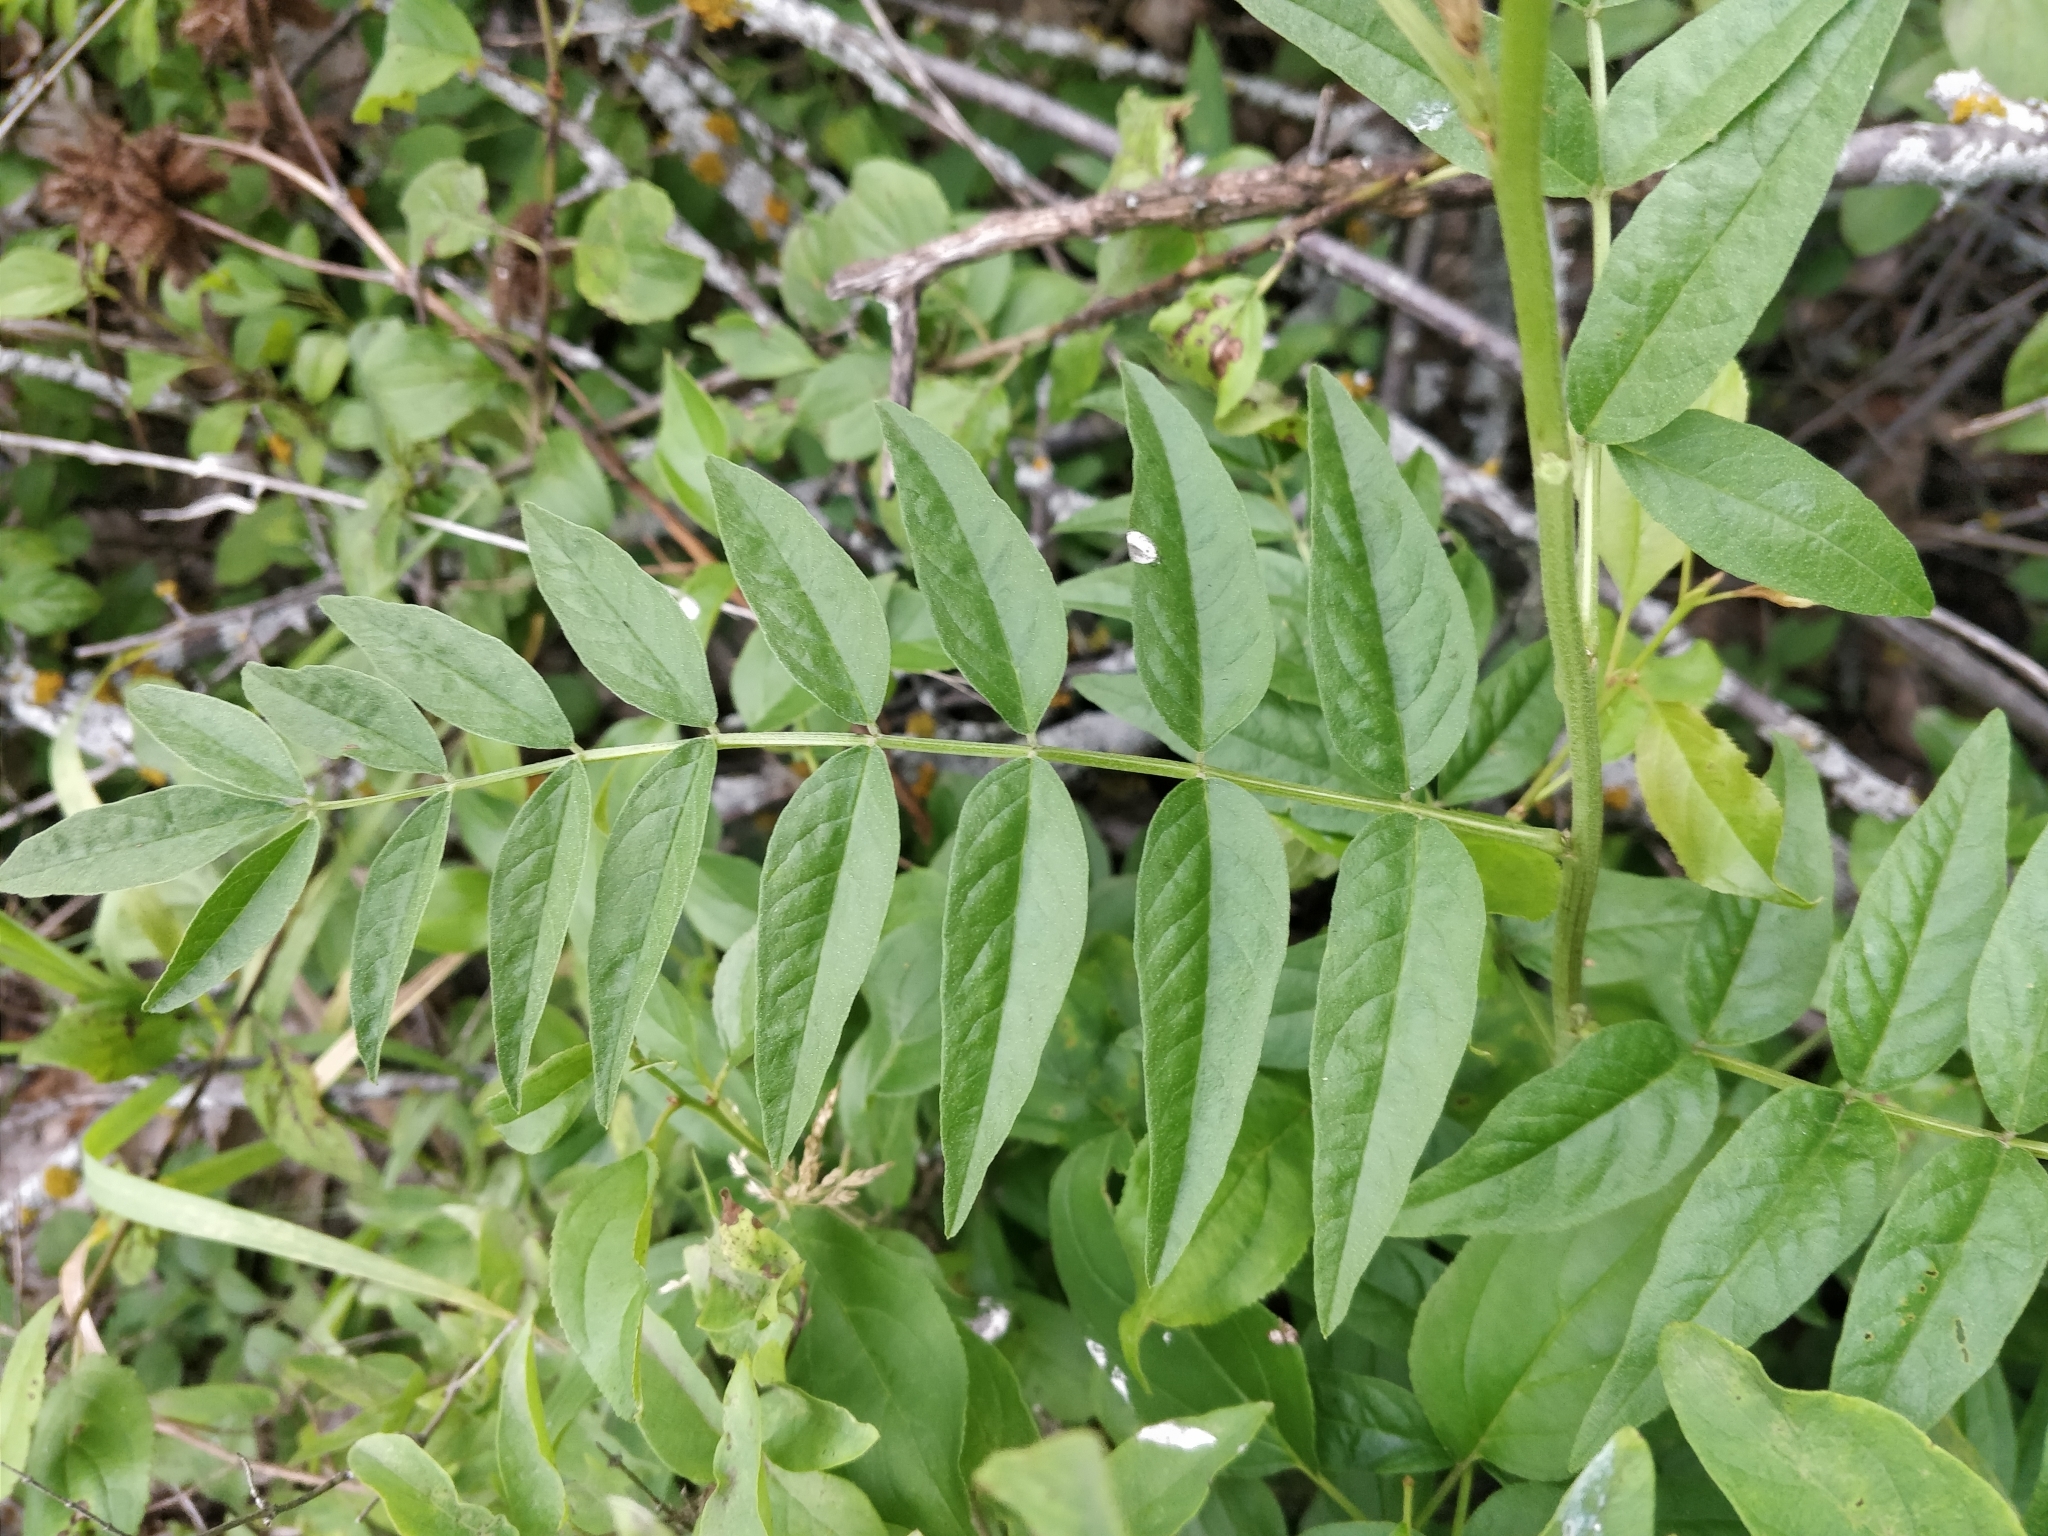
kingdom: Plantae
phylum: Tracheophyta
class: Magnoliopsida
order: Fabales
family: Fabaceae
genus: Glycyrrhiza
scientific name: Glycyrrhiza lepidota
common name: American liquorice
